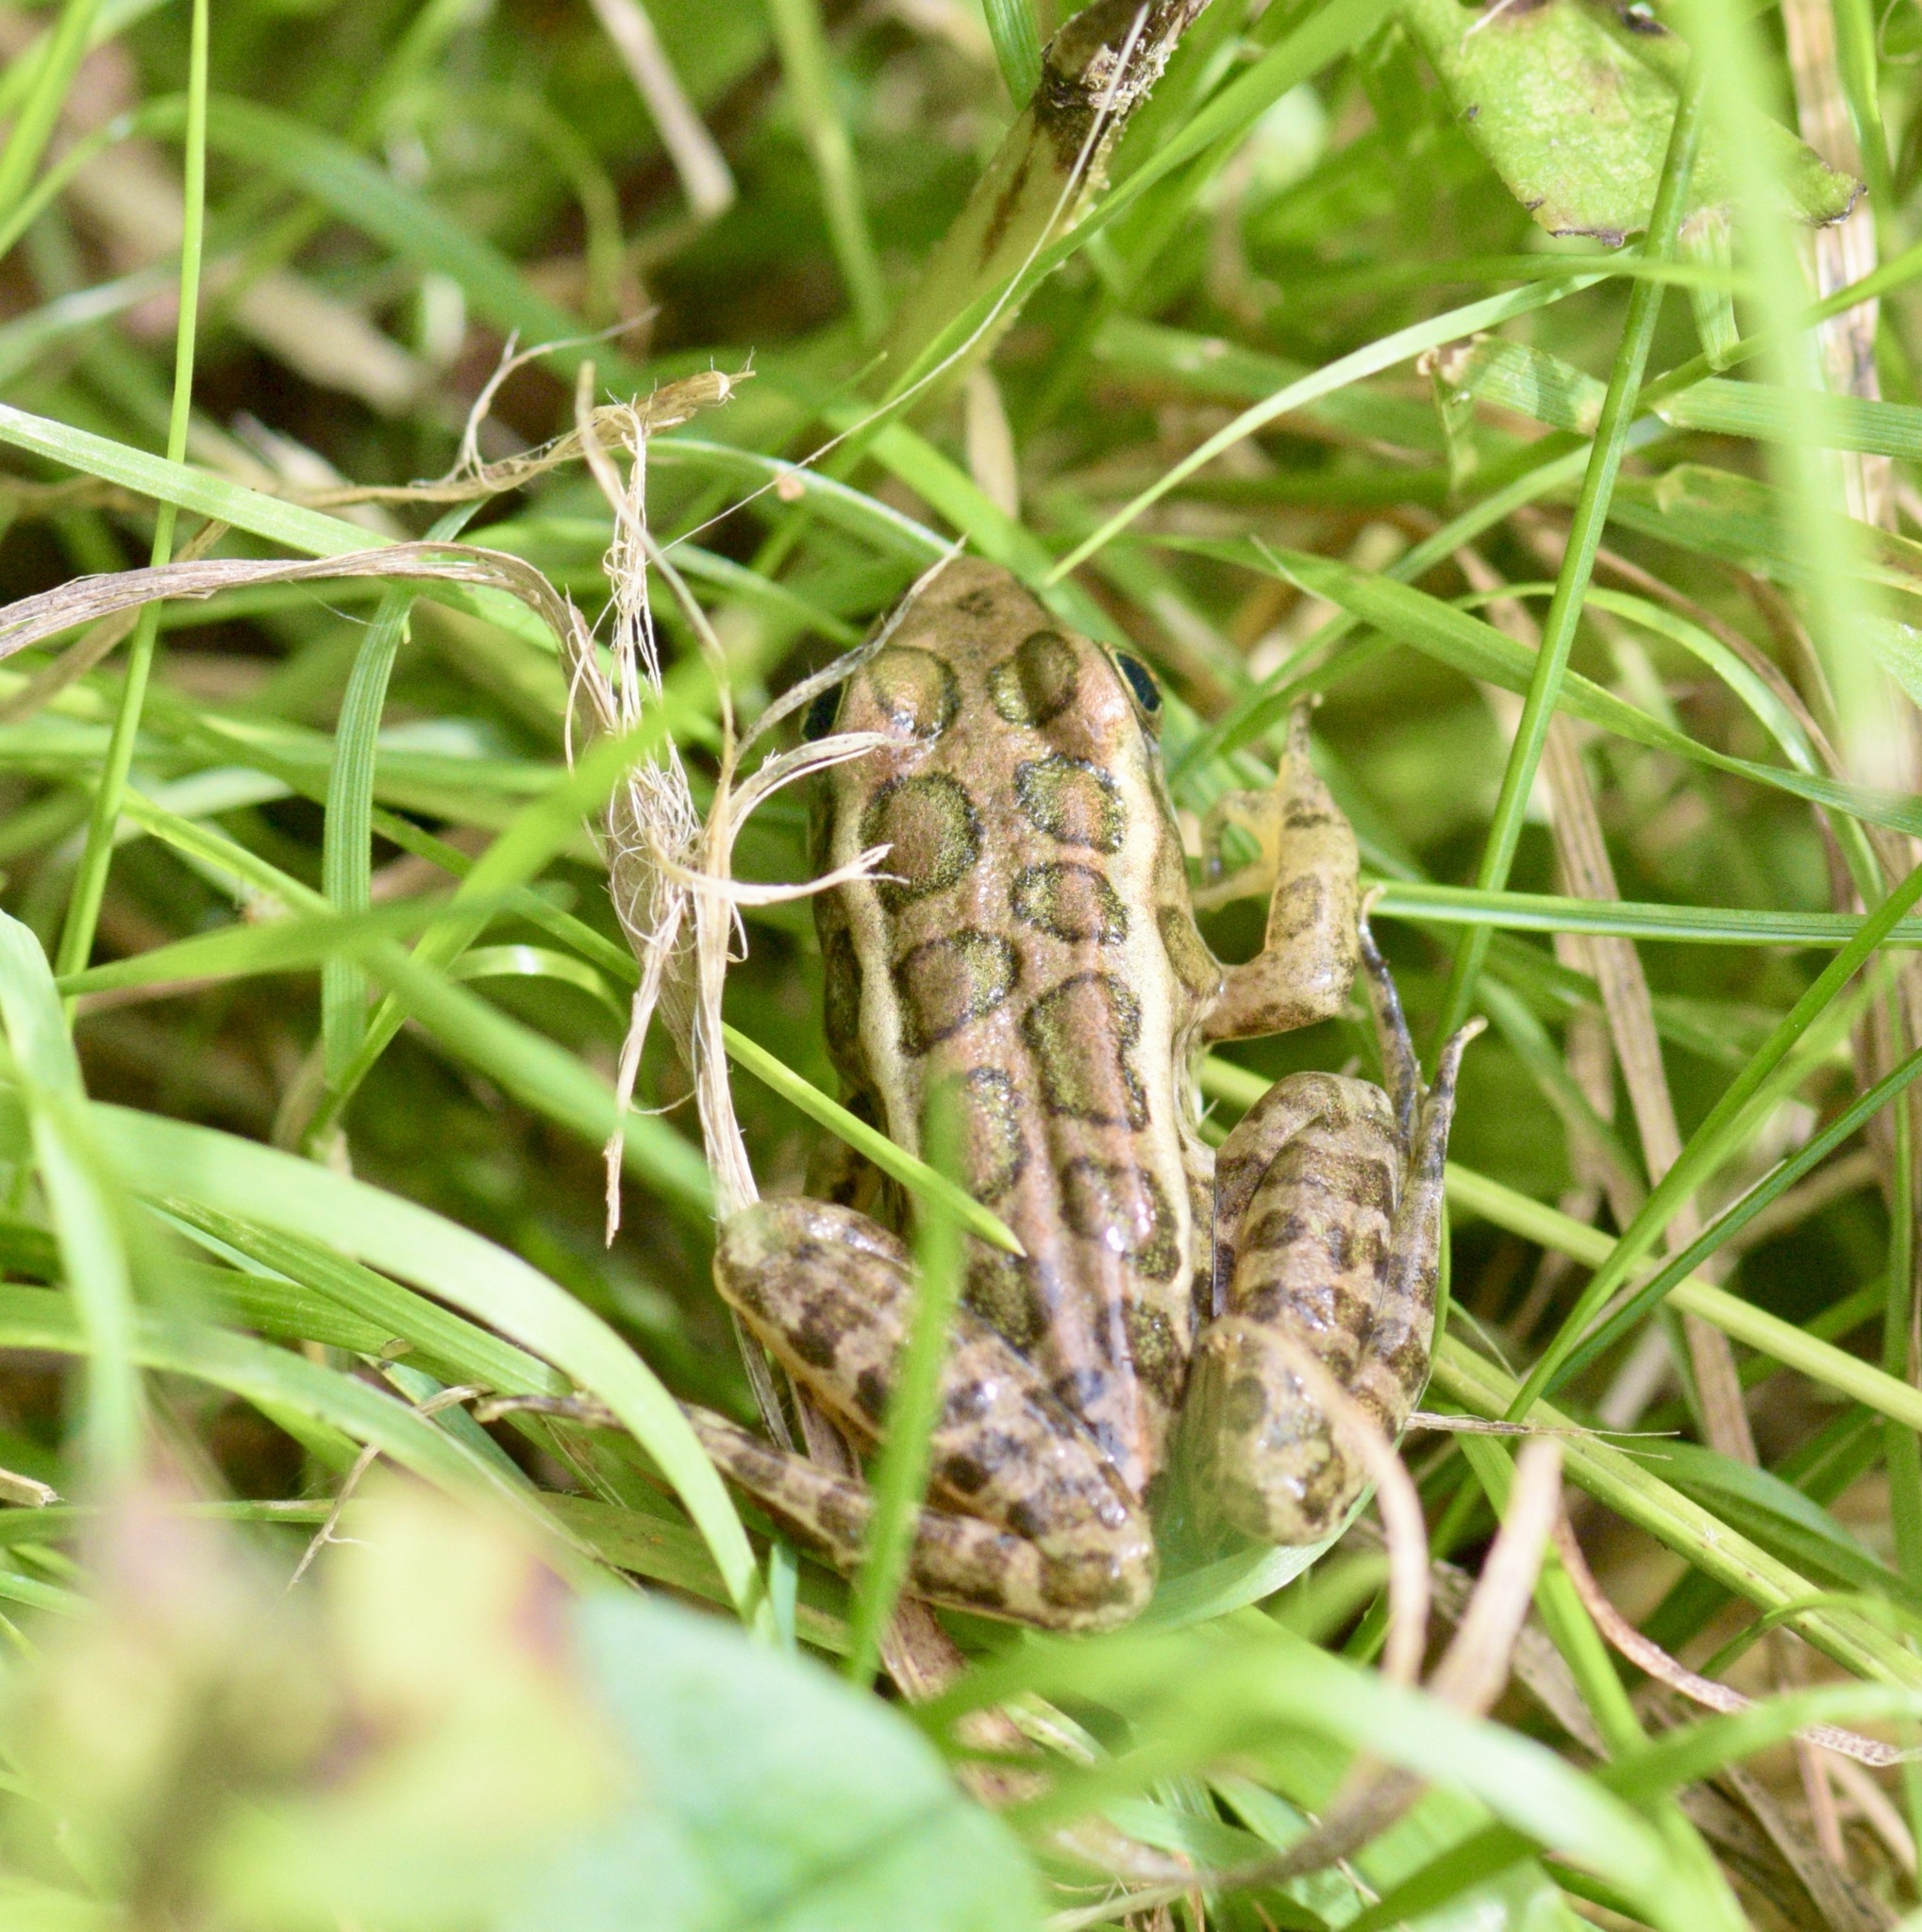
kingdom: Animalia
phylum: Chordata
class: Amphibia
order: Anura
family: Ranidae
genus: Lithobates
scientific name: Lithobates palustris
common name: Pickerel frog
